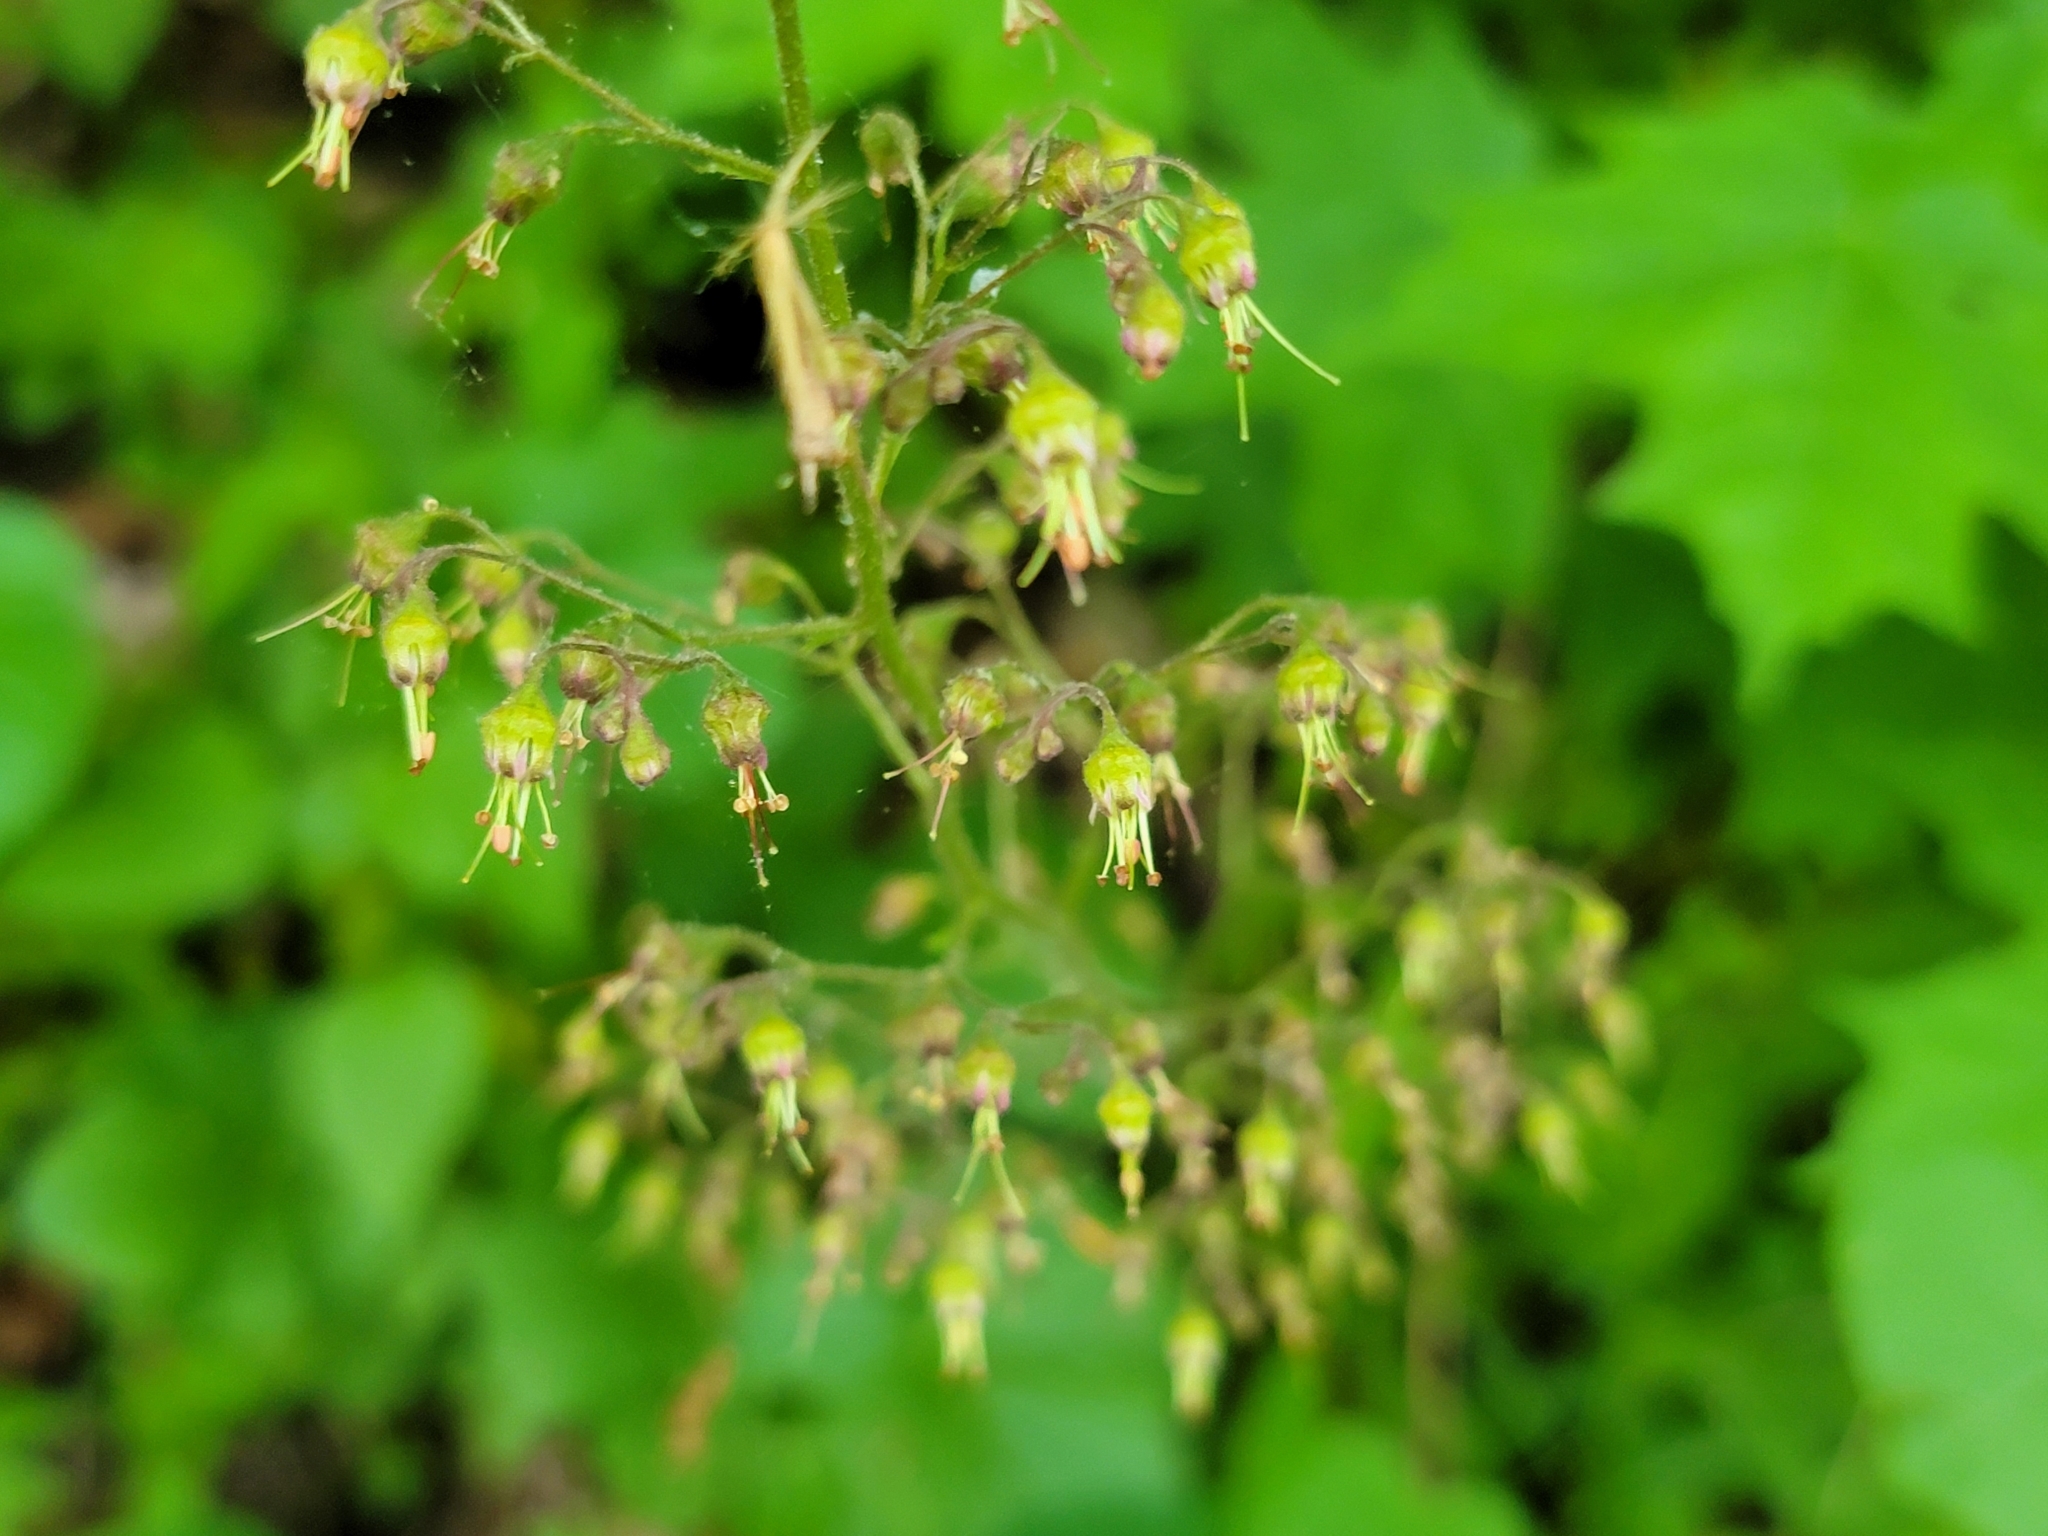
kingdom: Plantae
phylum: Tracheophyta
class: Magnoliopsida
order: Saxifragales
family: Saxifragaceae
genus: Heuchera
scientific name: Heuchera americana
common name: Alumroot
